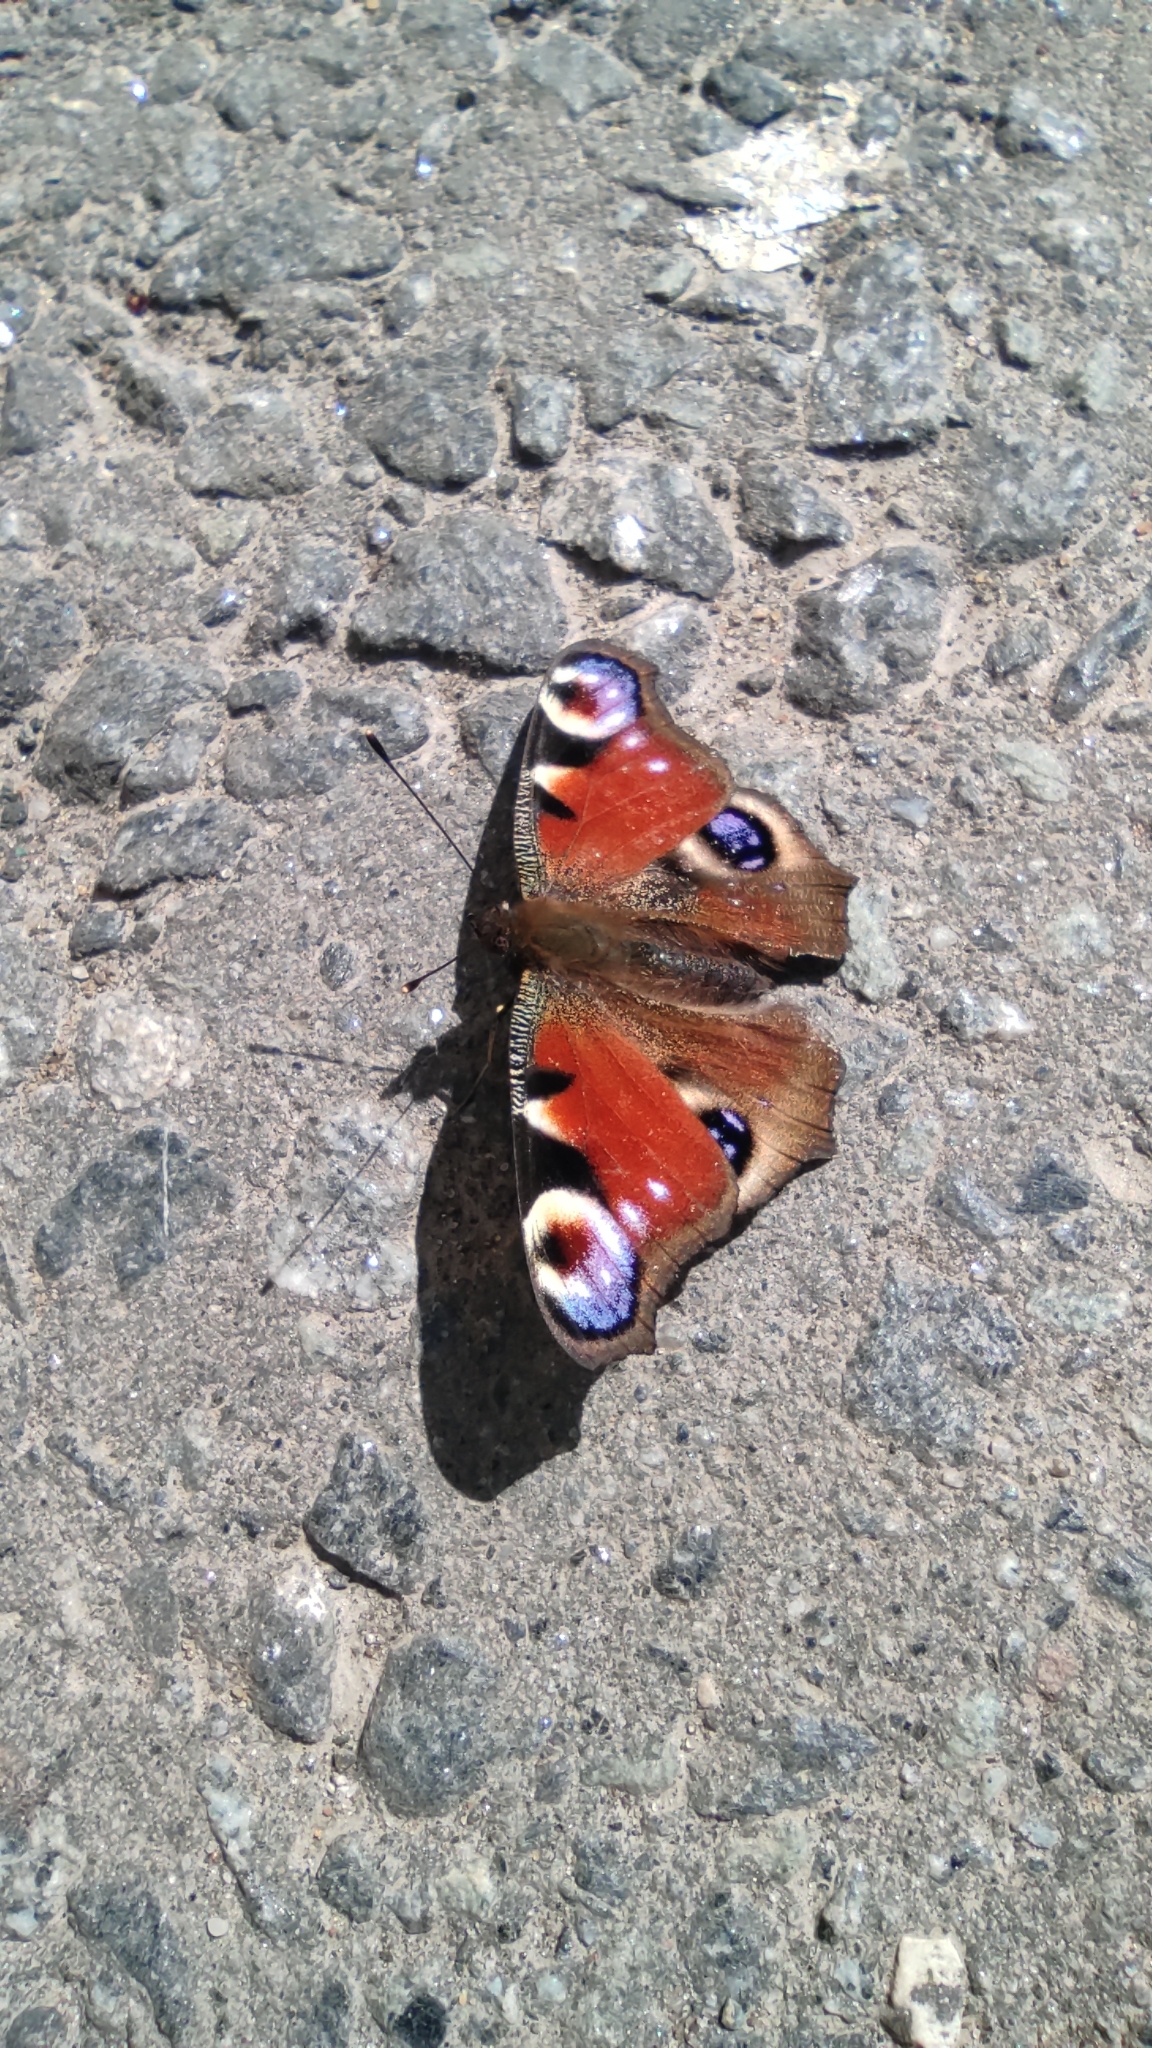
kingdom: Animalia
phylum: Arthropoda
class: Insecta
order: Lepidoptera
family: Nymphalidae
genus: Aglais
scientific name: Aglais io
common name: Peacock
